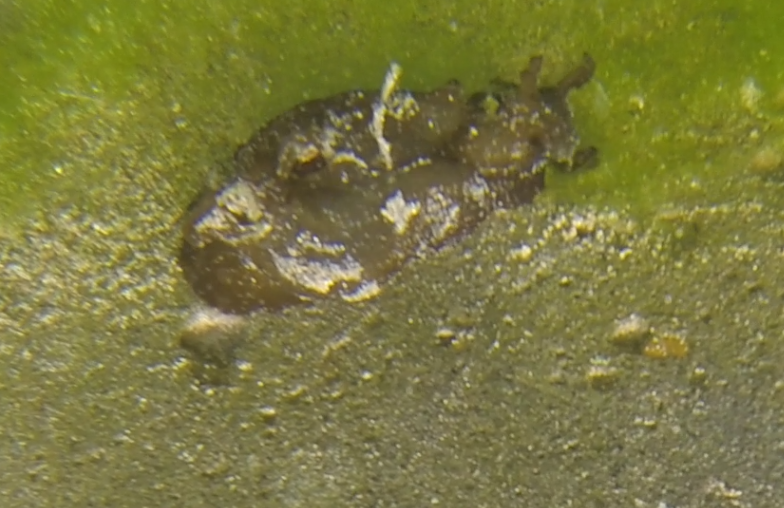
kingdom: Animalia
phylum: Mollusca
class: Gastropoda
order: Aplysiida
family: Aplysiidae
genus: Aplysia
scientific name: Aplysia juliana
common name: Walking sea hare
